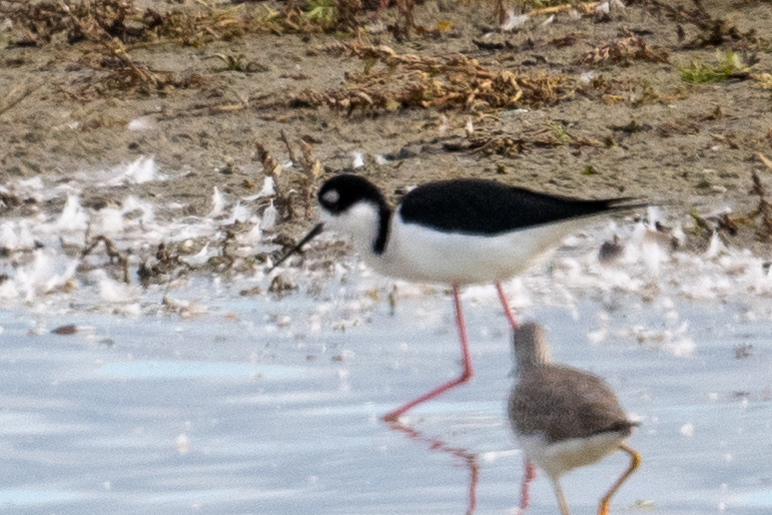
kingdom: Animalia
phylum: Chordata
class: Aves
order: Charadriiformes
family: Recurvirostridae
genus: Himantopus
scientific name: Himantopus mexicanus
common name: Black-necked stilt
